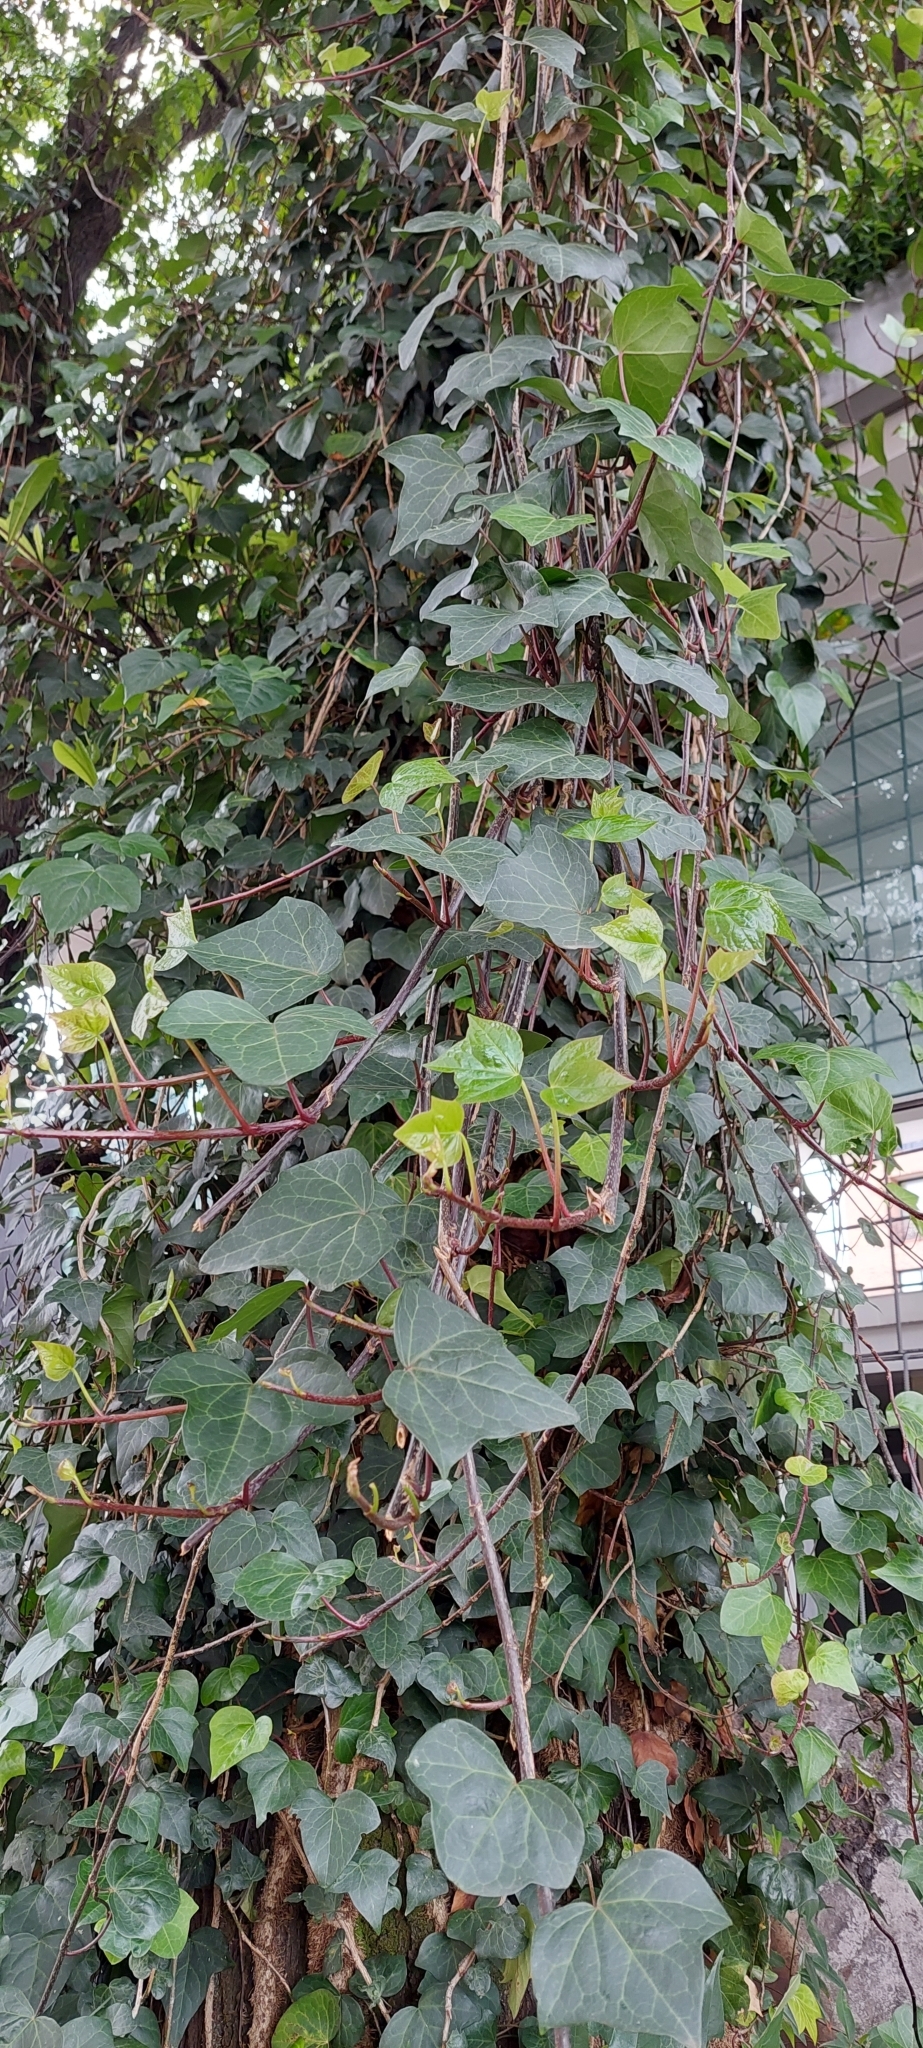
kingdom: Plantae
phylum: Tracheophyta
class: Magnoliopsida
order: Apiales
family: Araliaceae
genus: Hedera
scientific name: Hedera helix
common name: Ivy
